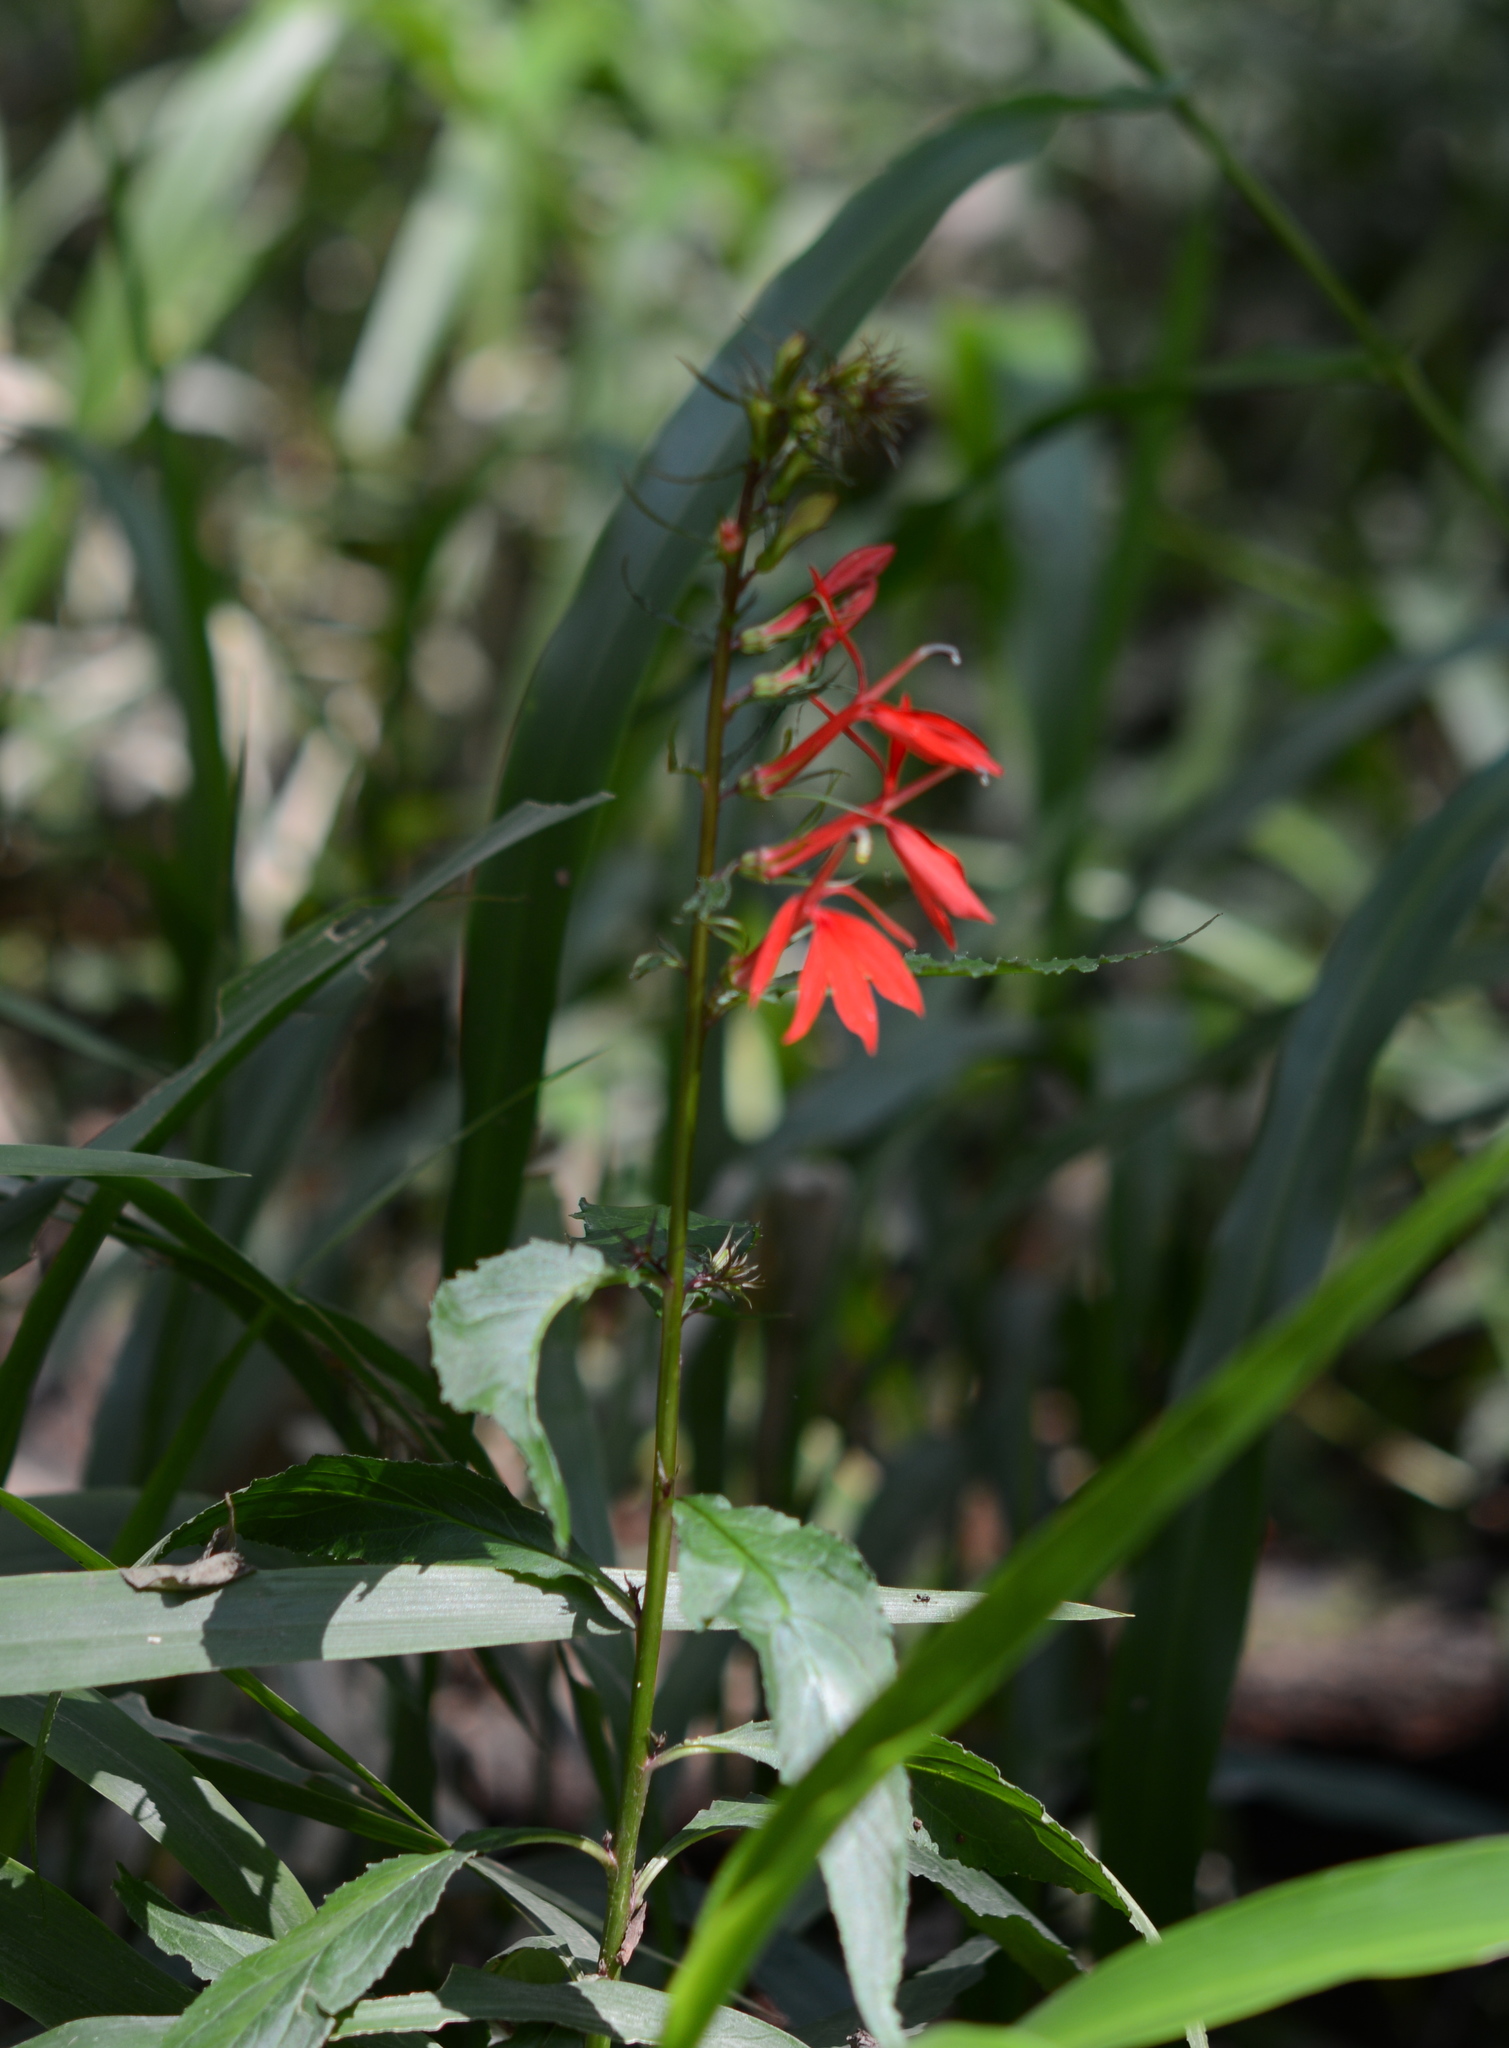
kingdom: Plantae
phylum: Tracheophyta
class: Magnoliopsida
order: Asterales
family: Campanulaceae
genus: Lobelia
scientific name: Lobelia cardinalis
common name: Cardinal flower
